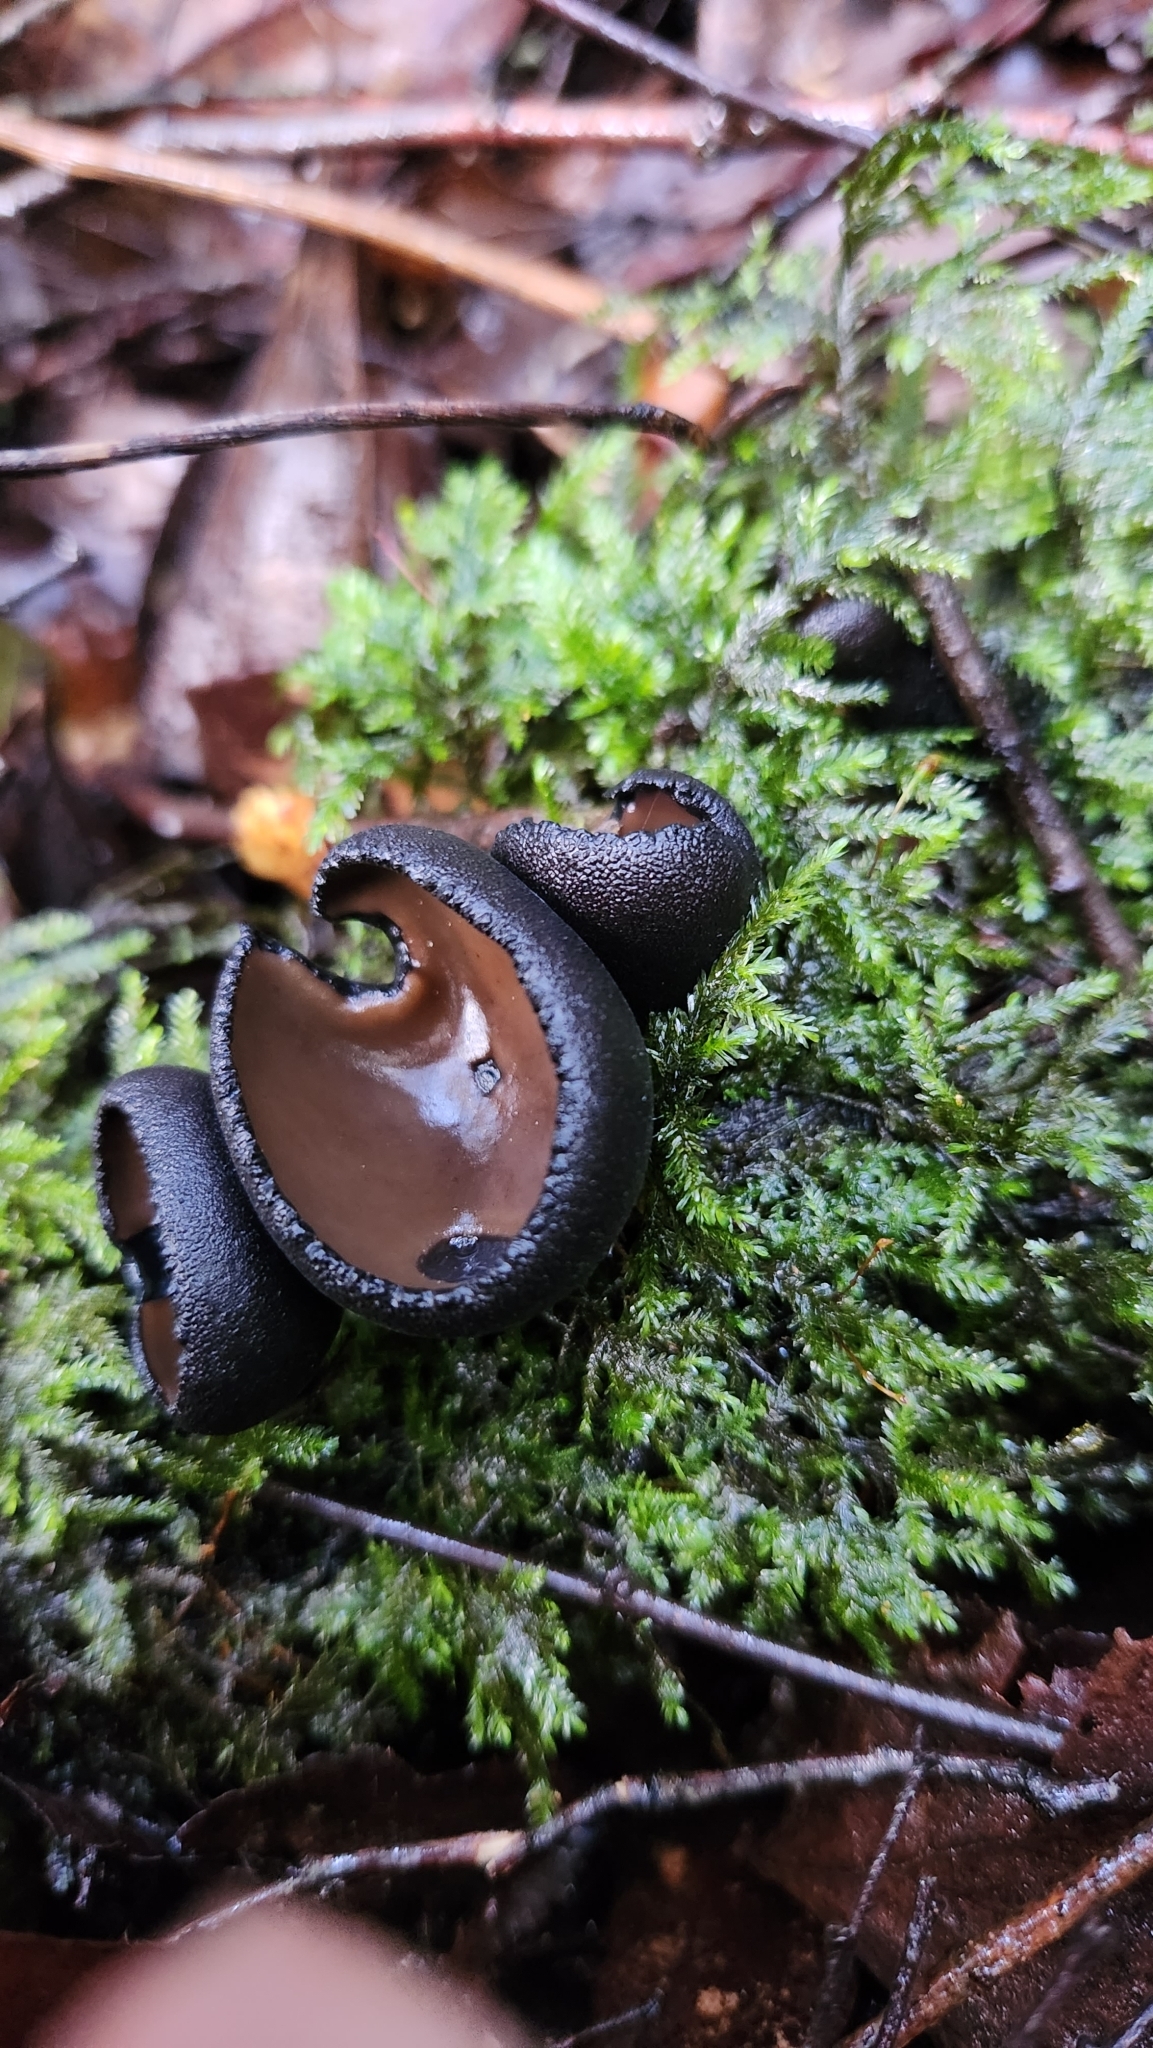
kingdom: Fungi
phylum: Ascomycota
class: Pezizomycetes
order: Pezizales
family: Sarcosomataceae
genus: Plectania
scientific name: Plectania chilensis
